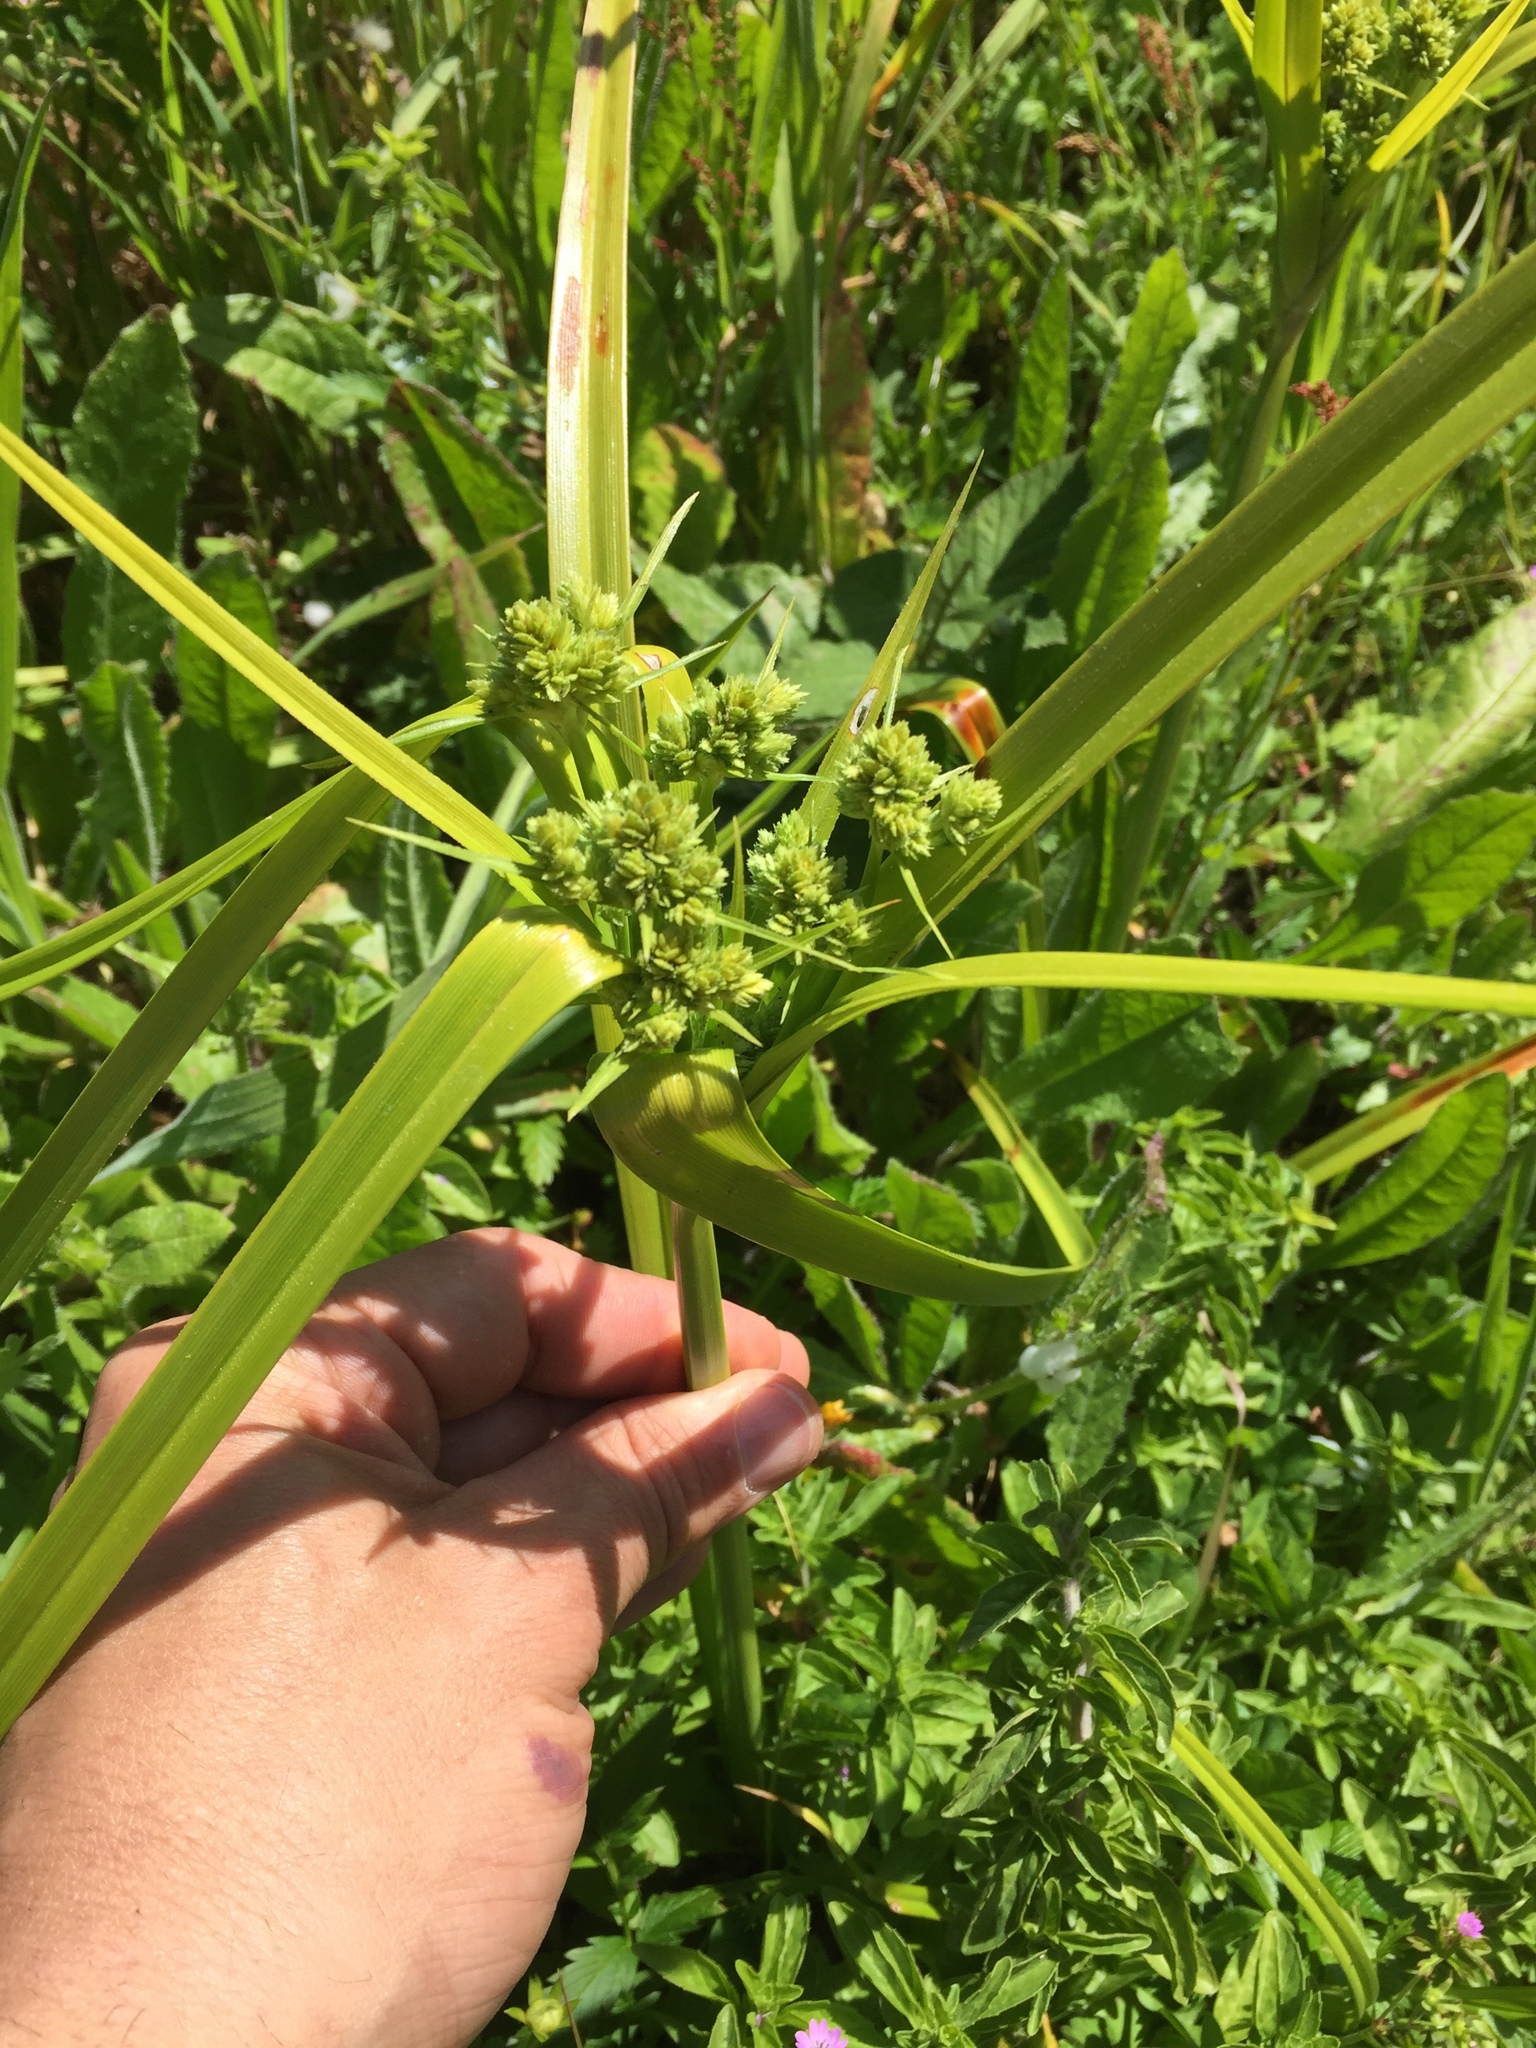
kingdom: Plantae
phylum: Tracheophyta
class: Liliopsida
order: Poales
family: Cyperaceae
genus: Cyperus
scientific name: Cyperus eragrostis
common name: Tall flatsedge
